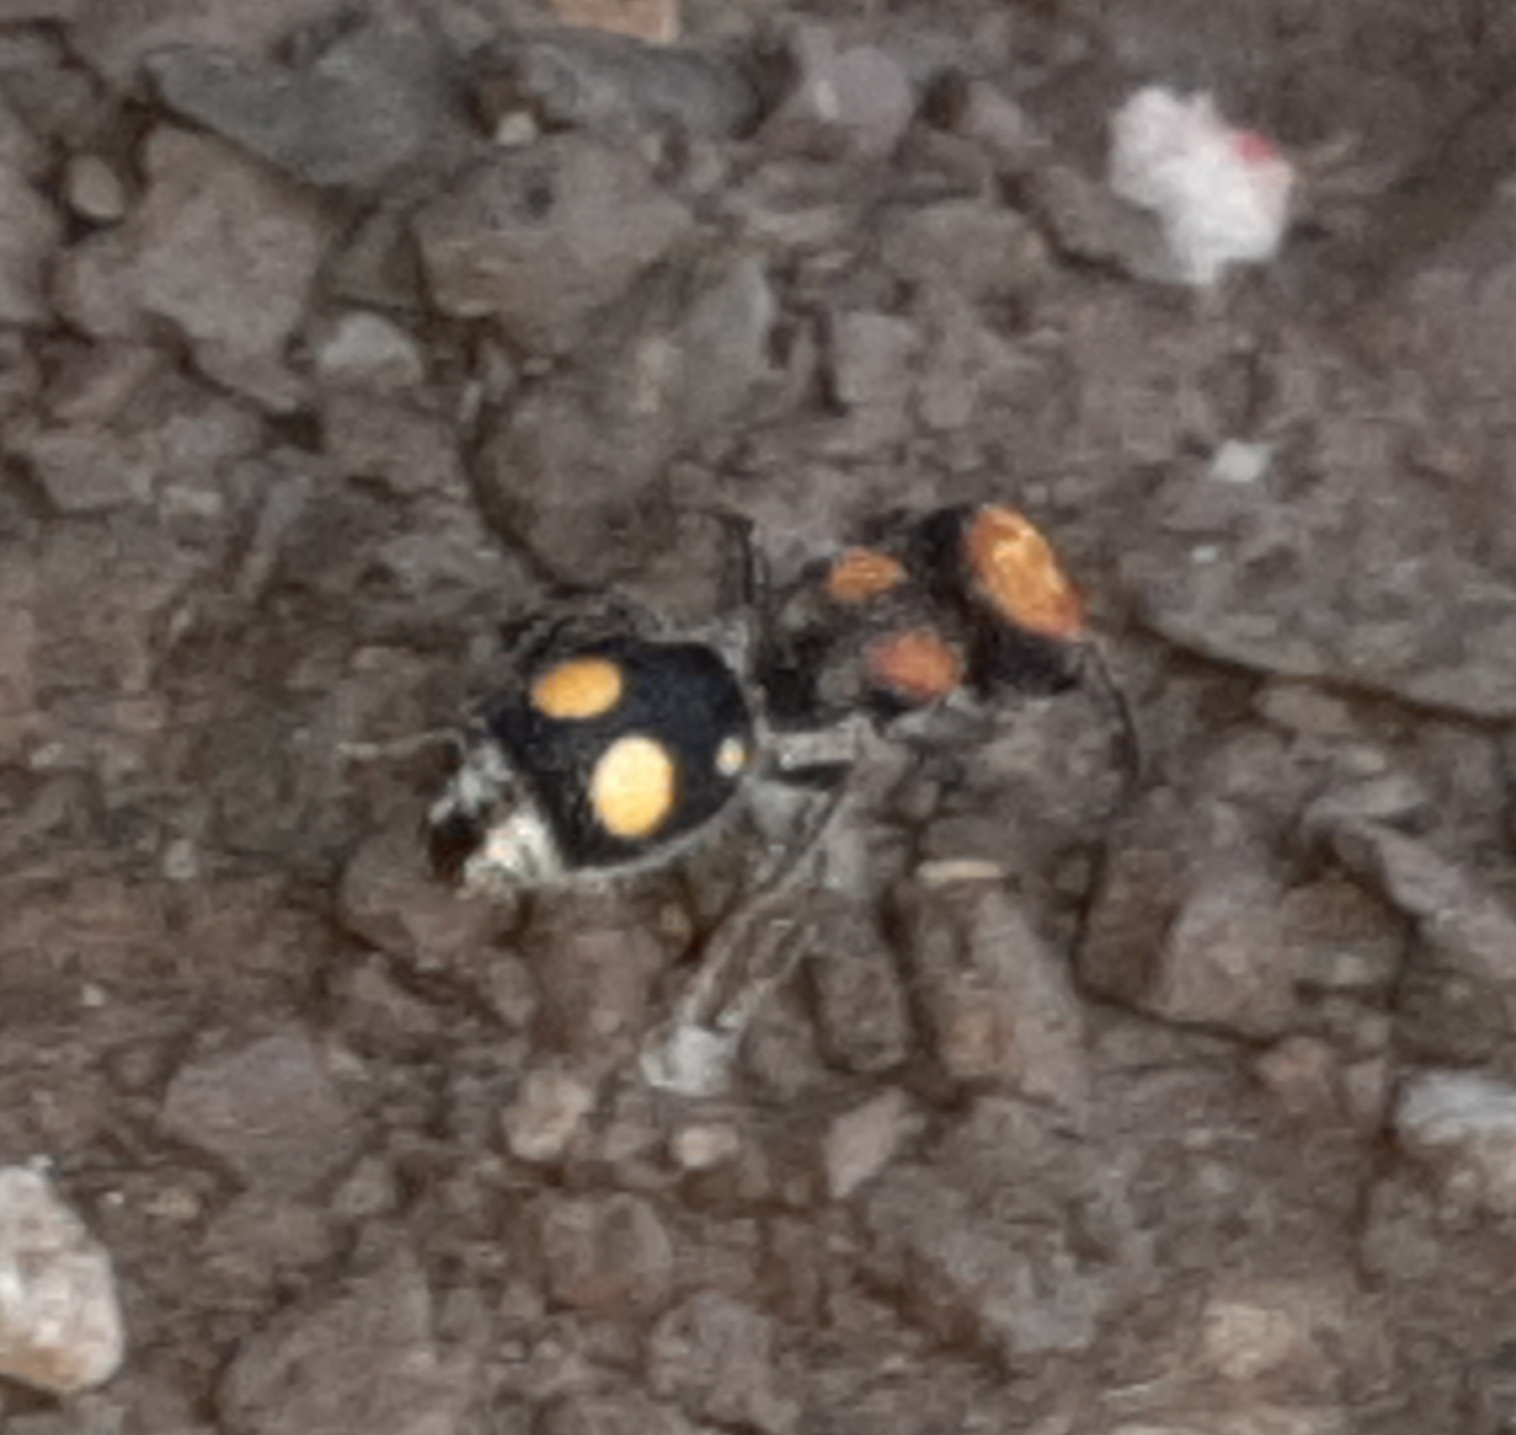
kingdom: Animalia
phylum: Arthropoda
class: Insecta
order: Hymenoptera
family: Mutillidae
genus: Pseudomethoca
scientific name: Pseudomethoca
